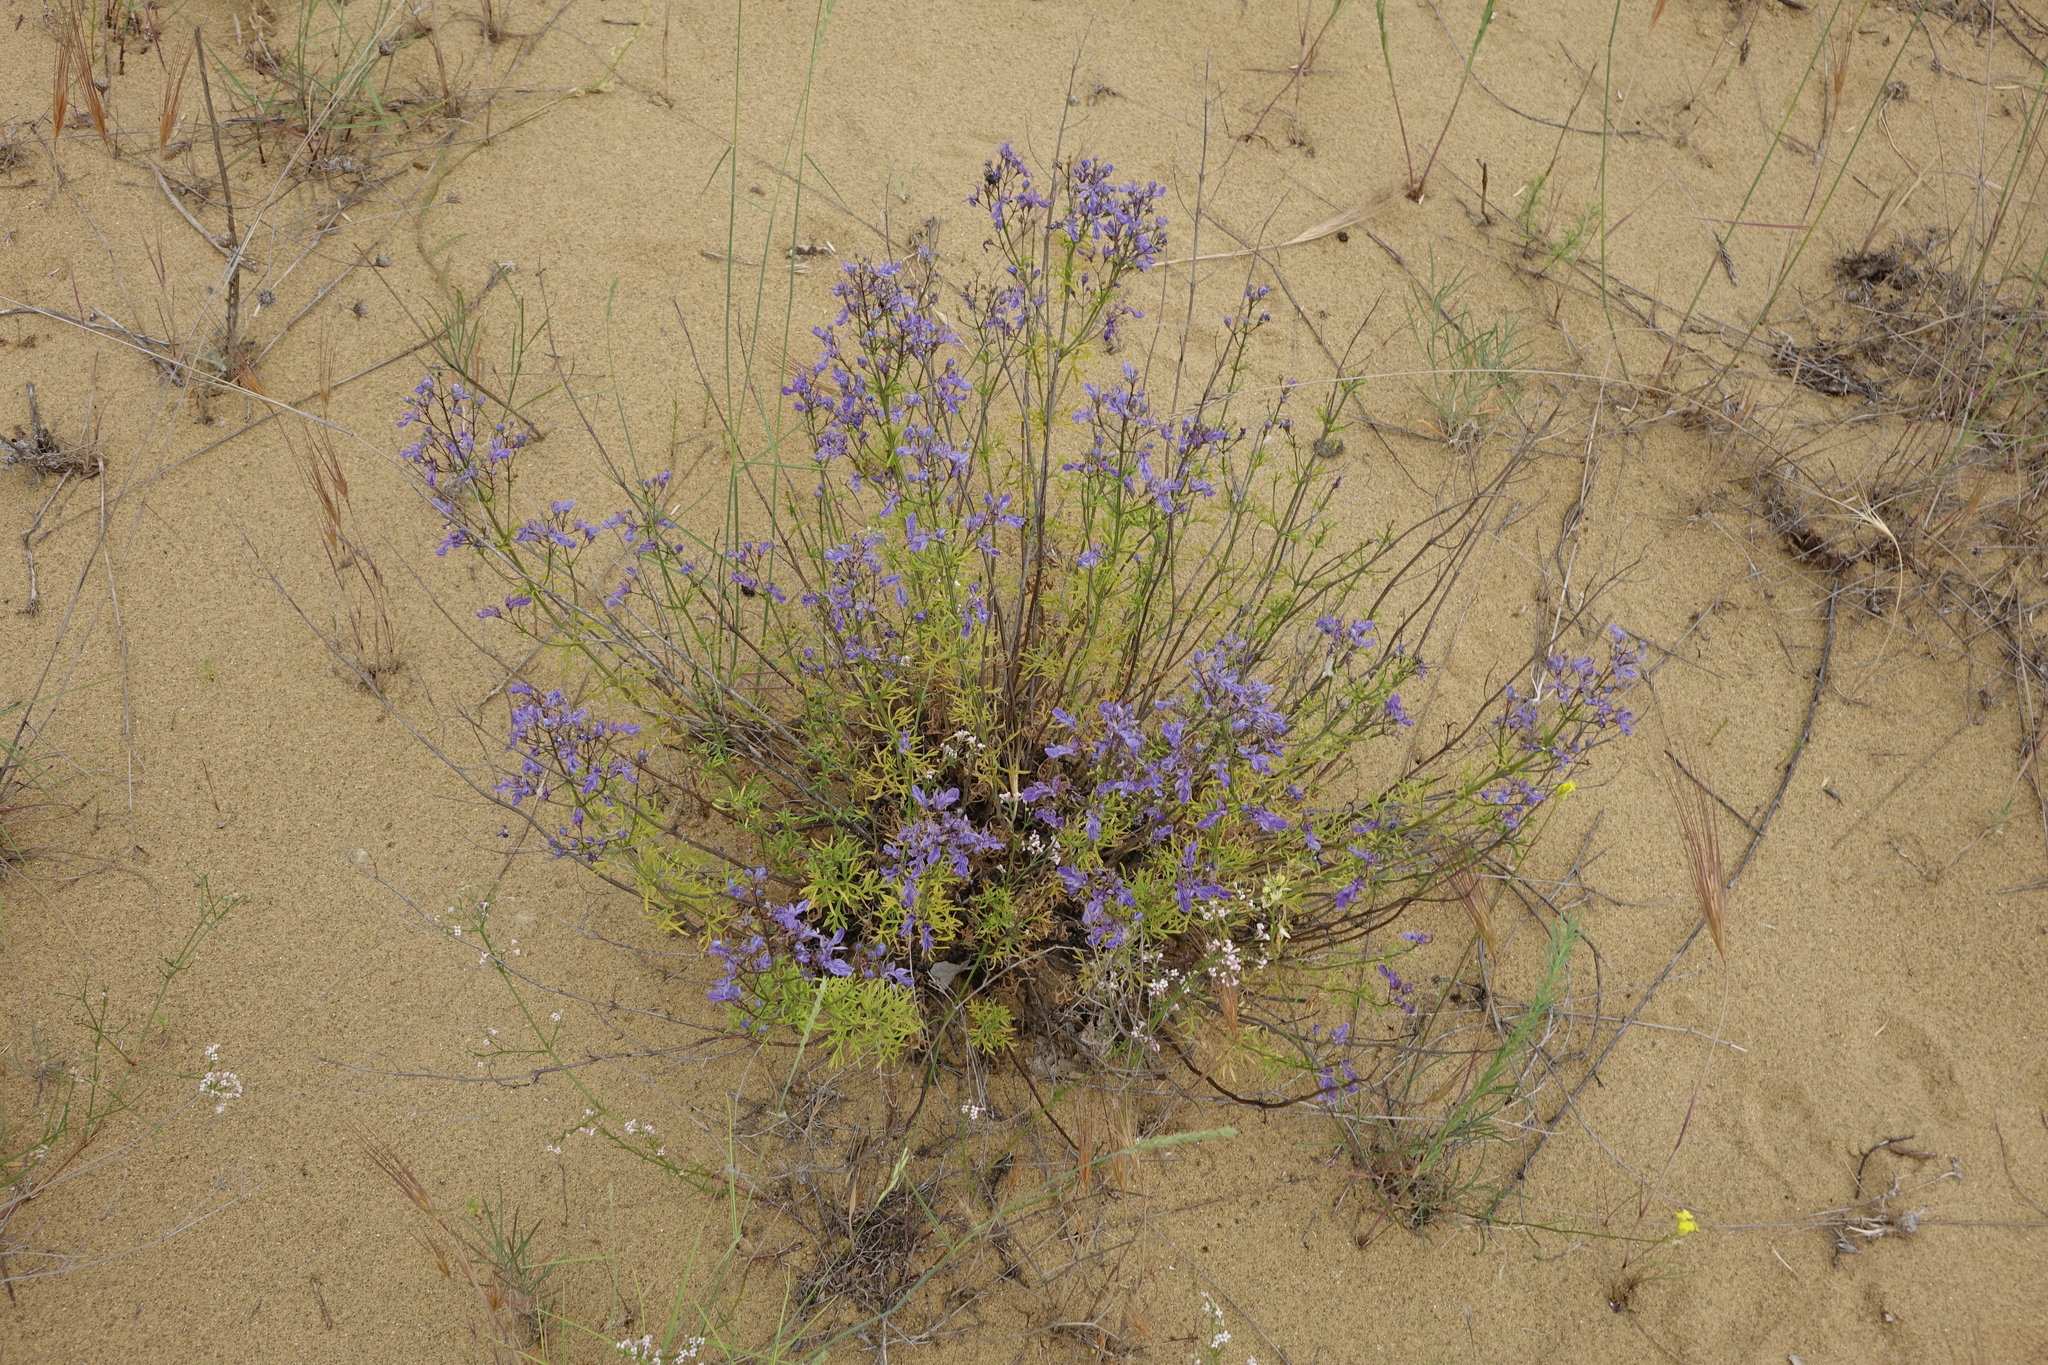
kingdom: Plantae
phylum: Tracheophyta
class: Magnoliopsida
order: Lamiales
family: Lamiaceae
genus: Teucrium
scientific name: Teucrium orientale
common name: Oriental germander
